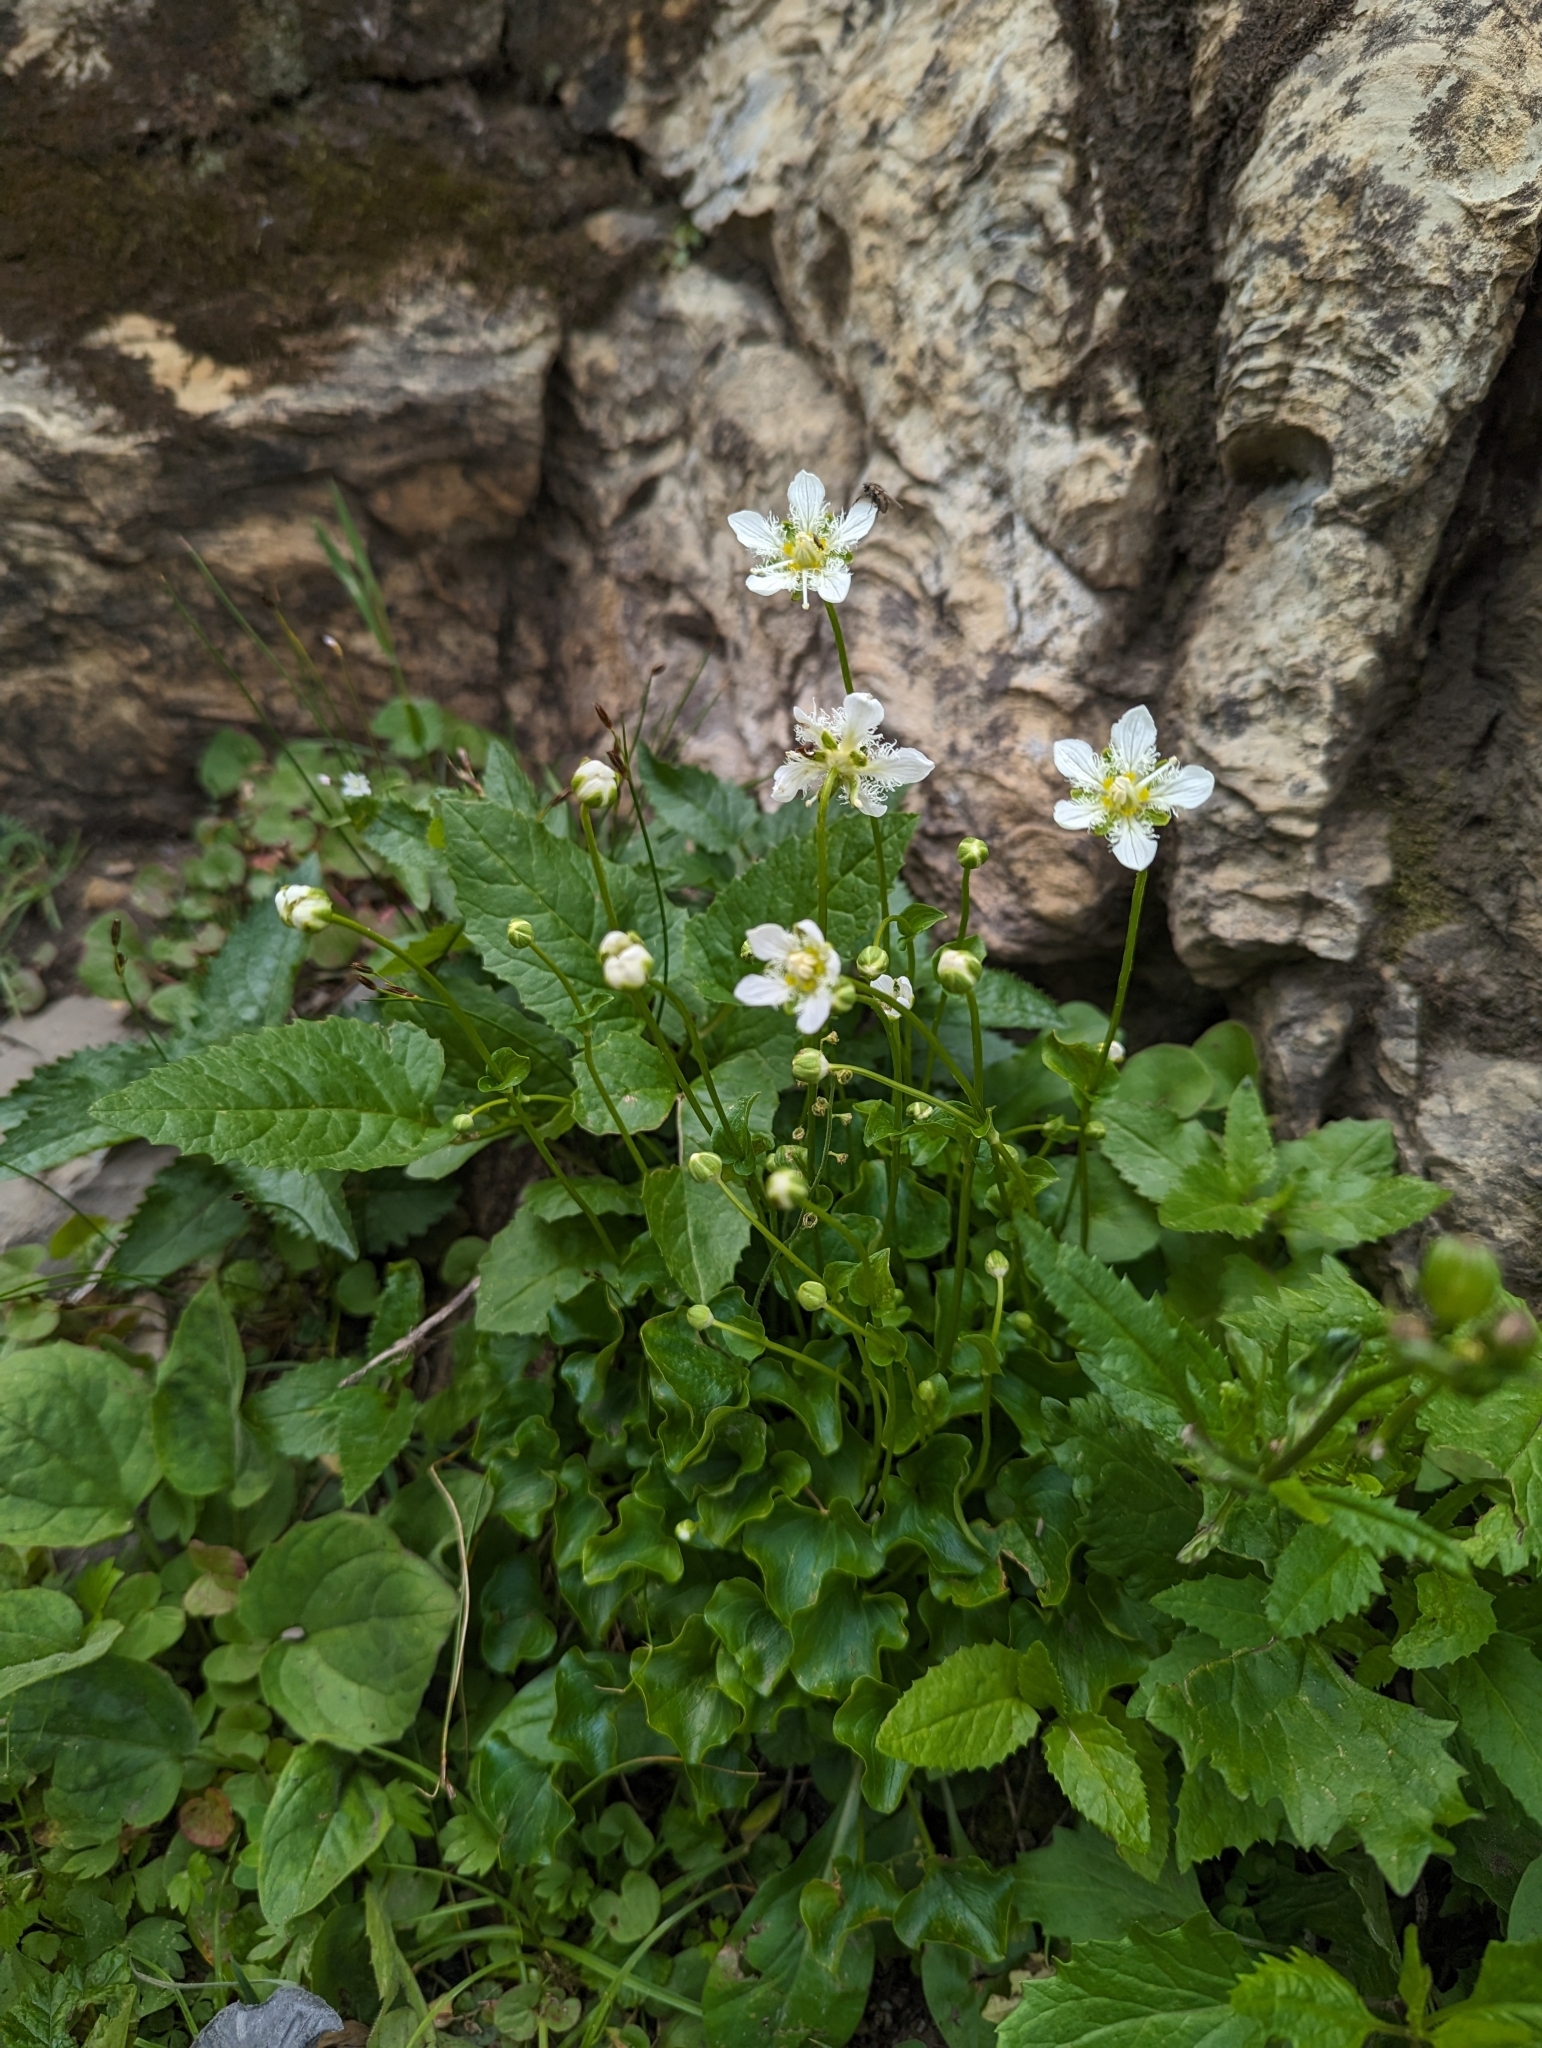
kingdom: Plantae
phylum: Tracheophyta
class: Magnoliopsida
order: Celastrales
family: Parnassiaceae
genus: Parnassia
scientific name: Parnassia fimbriata
